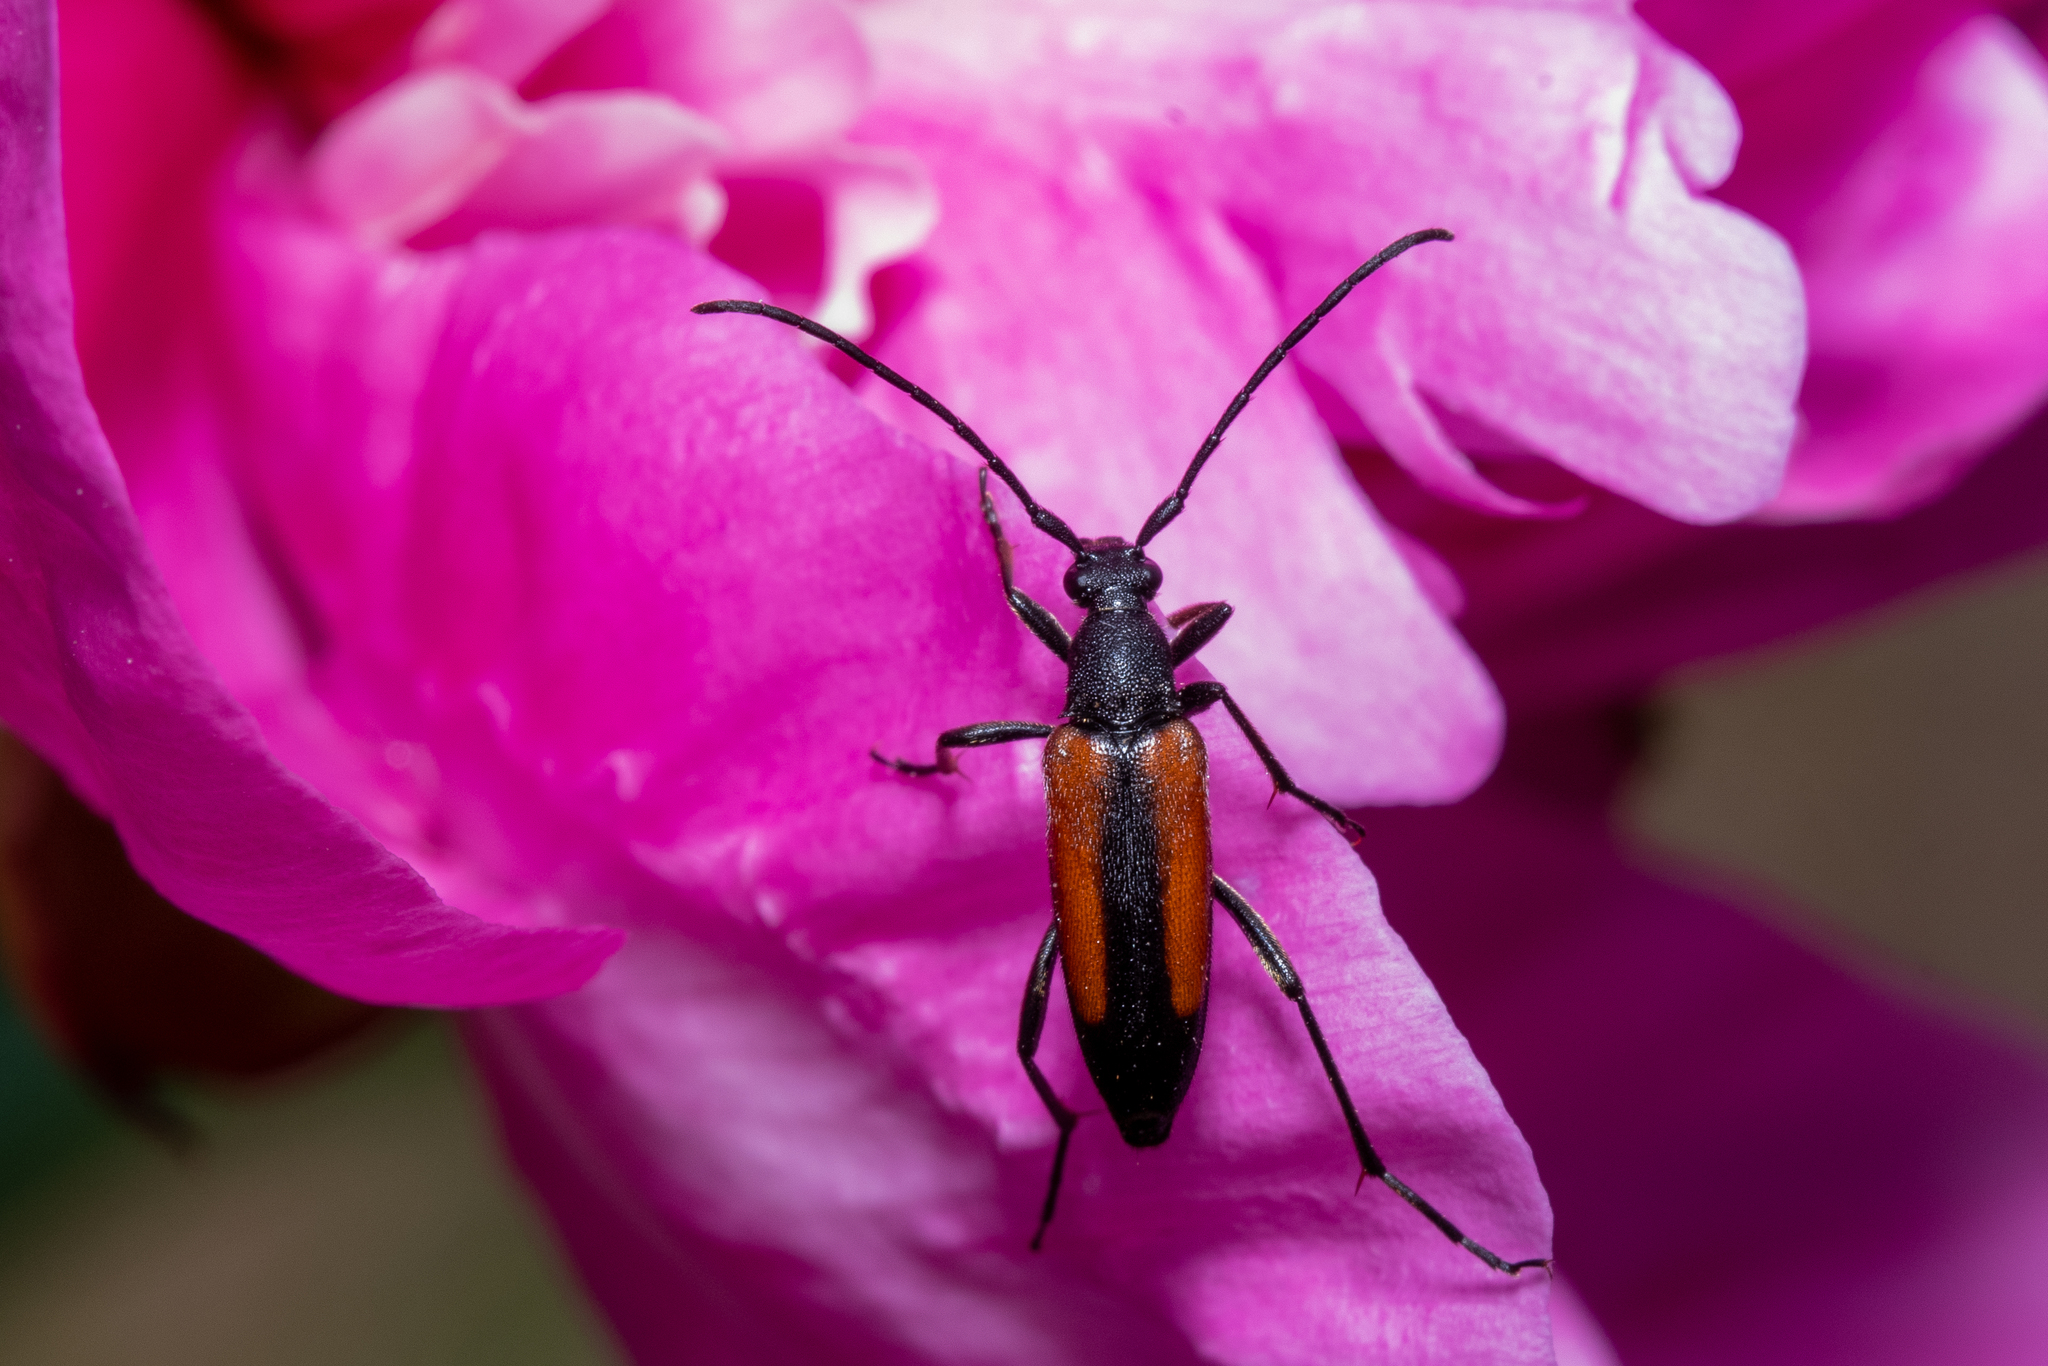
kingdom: Animalia
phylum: Arthropoda
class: Insecta
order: Coleoptera
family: Cerambycidae
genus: Stenurella
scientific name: Stenurella melanura
